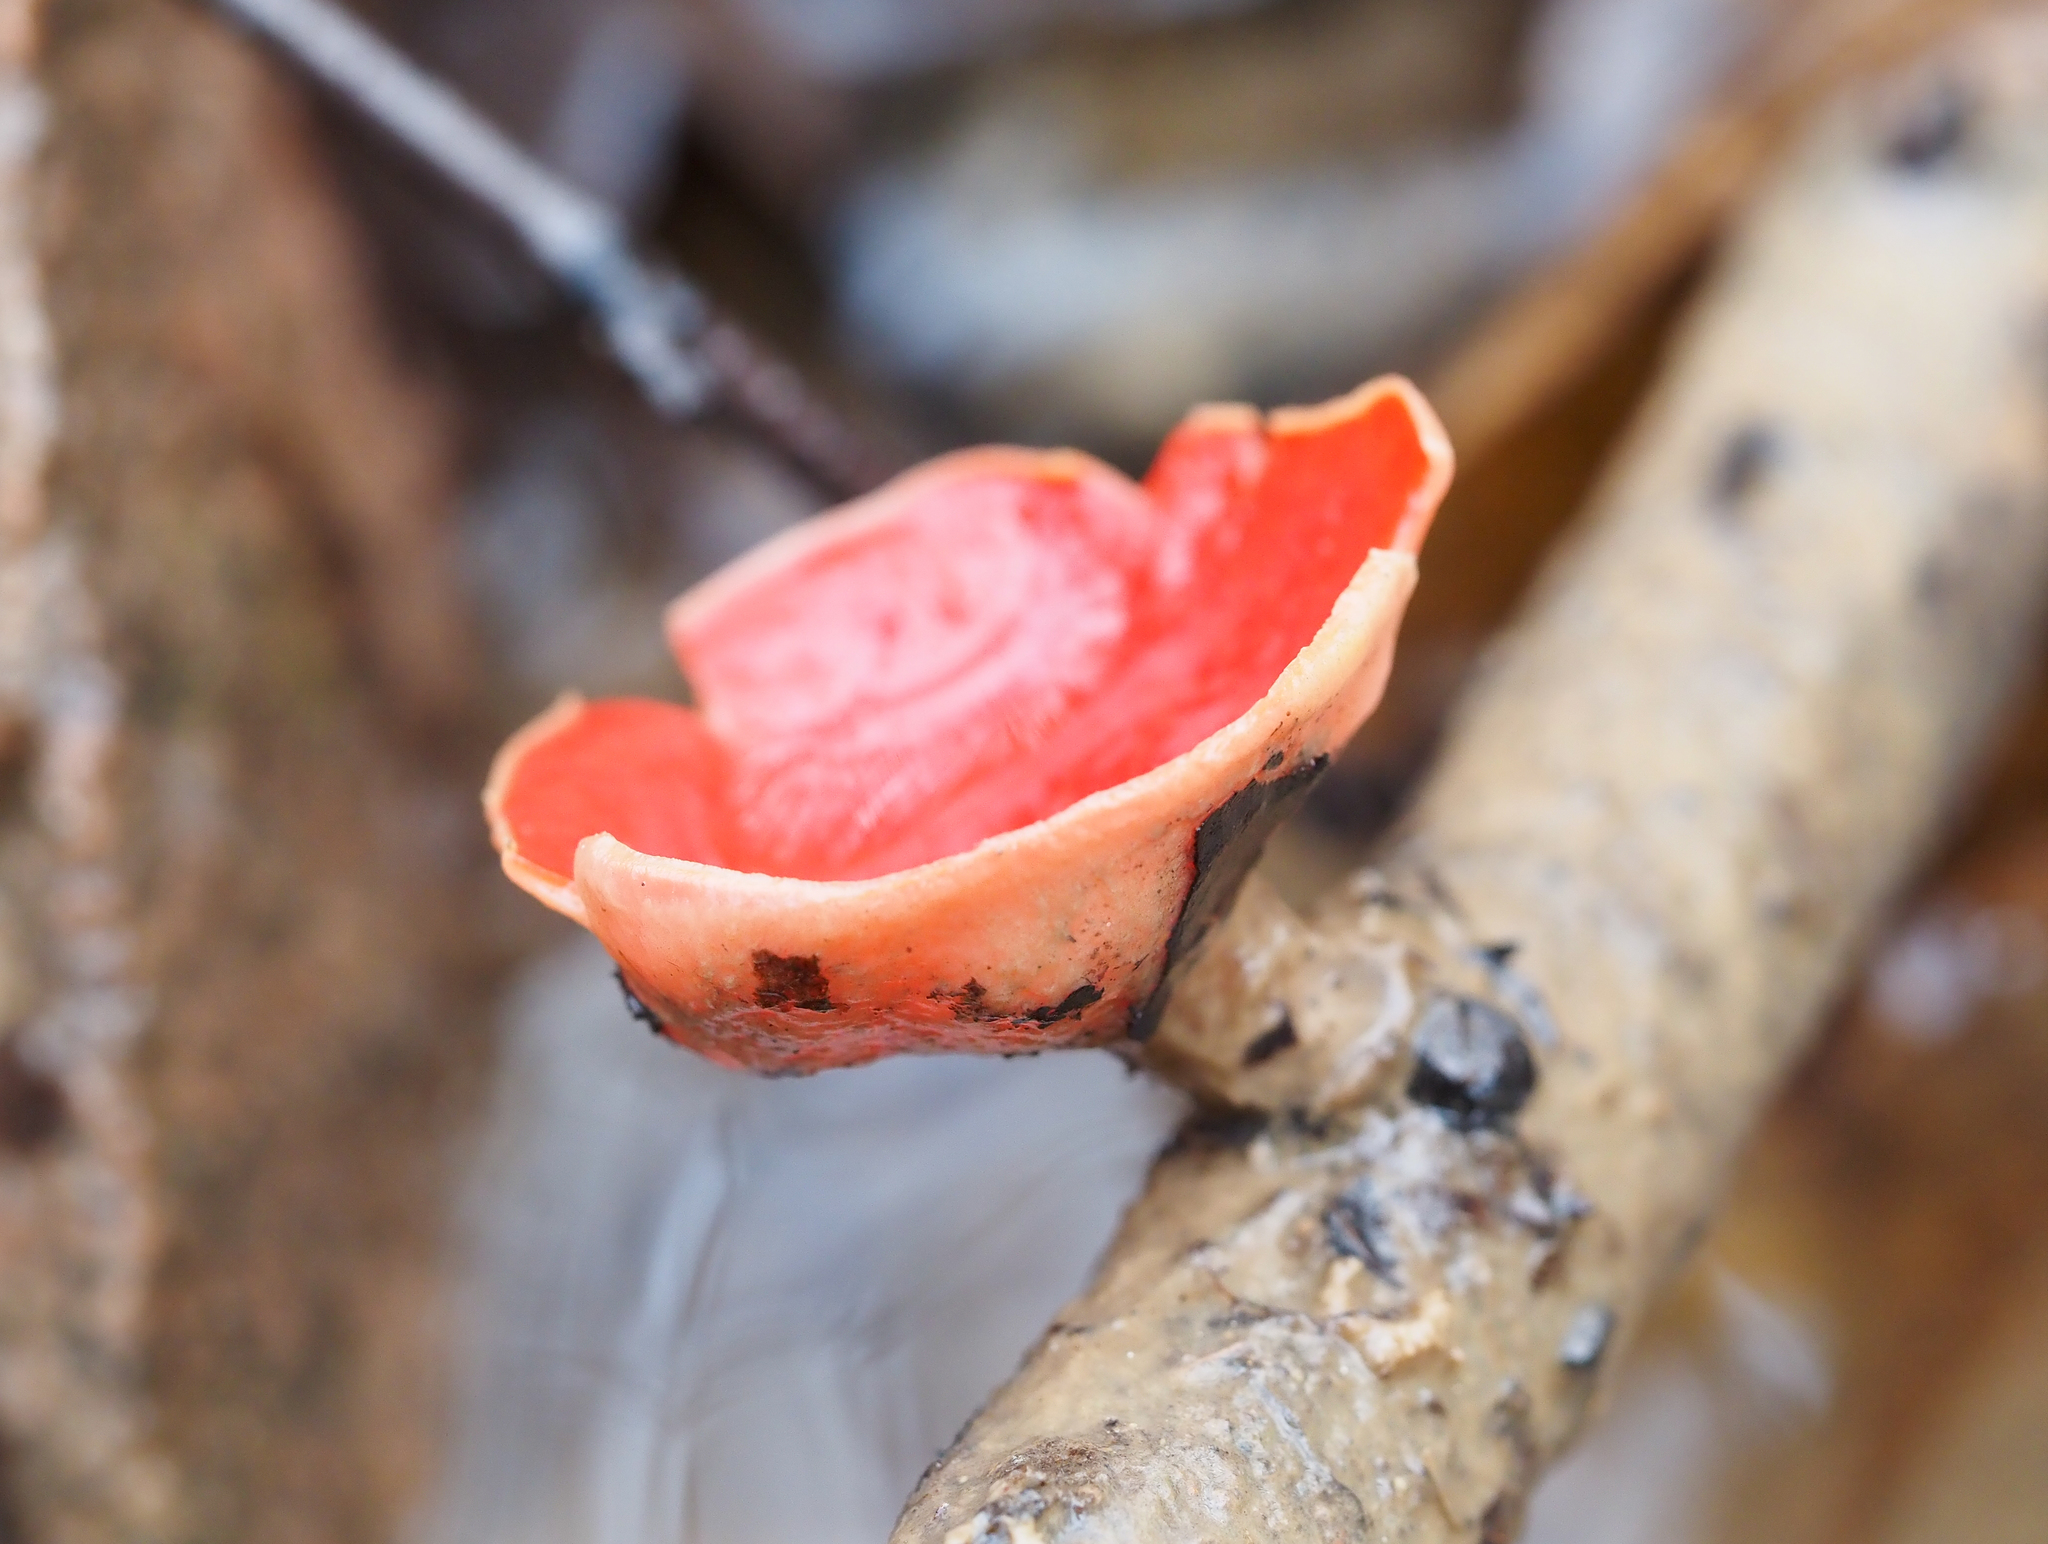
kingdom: Fungi
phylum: Ascomycota
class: Pezizomycetes
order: Pezizales
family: Sarcoscyphaceae
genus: Sarcoscypha
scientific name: Sarcoscypha austriaca
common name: Scarlet elfcup
